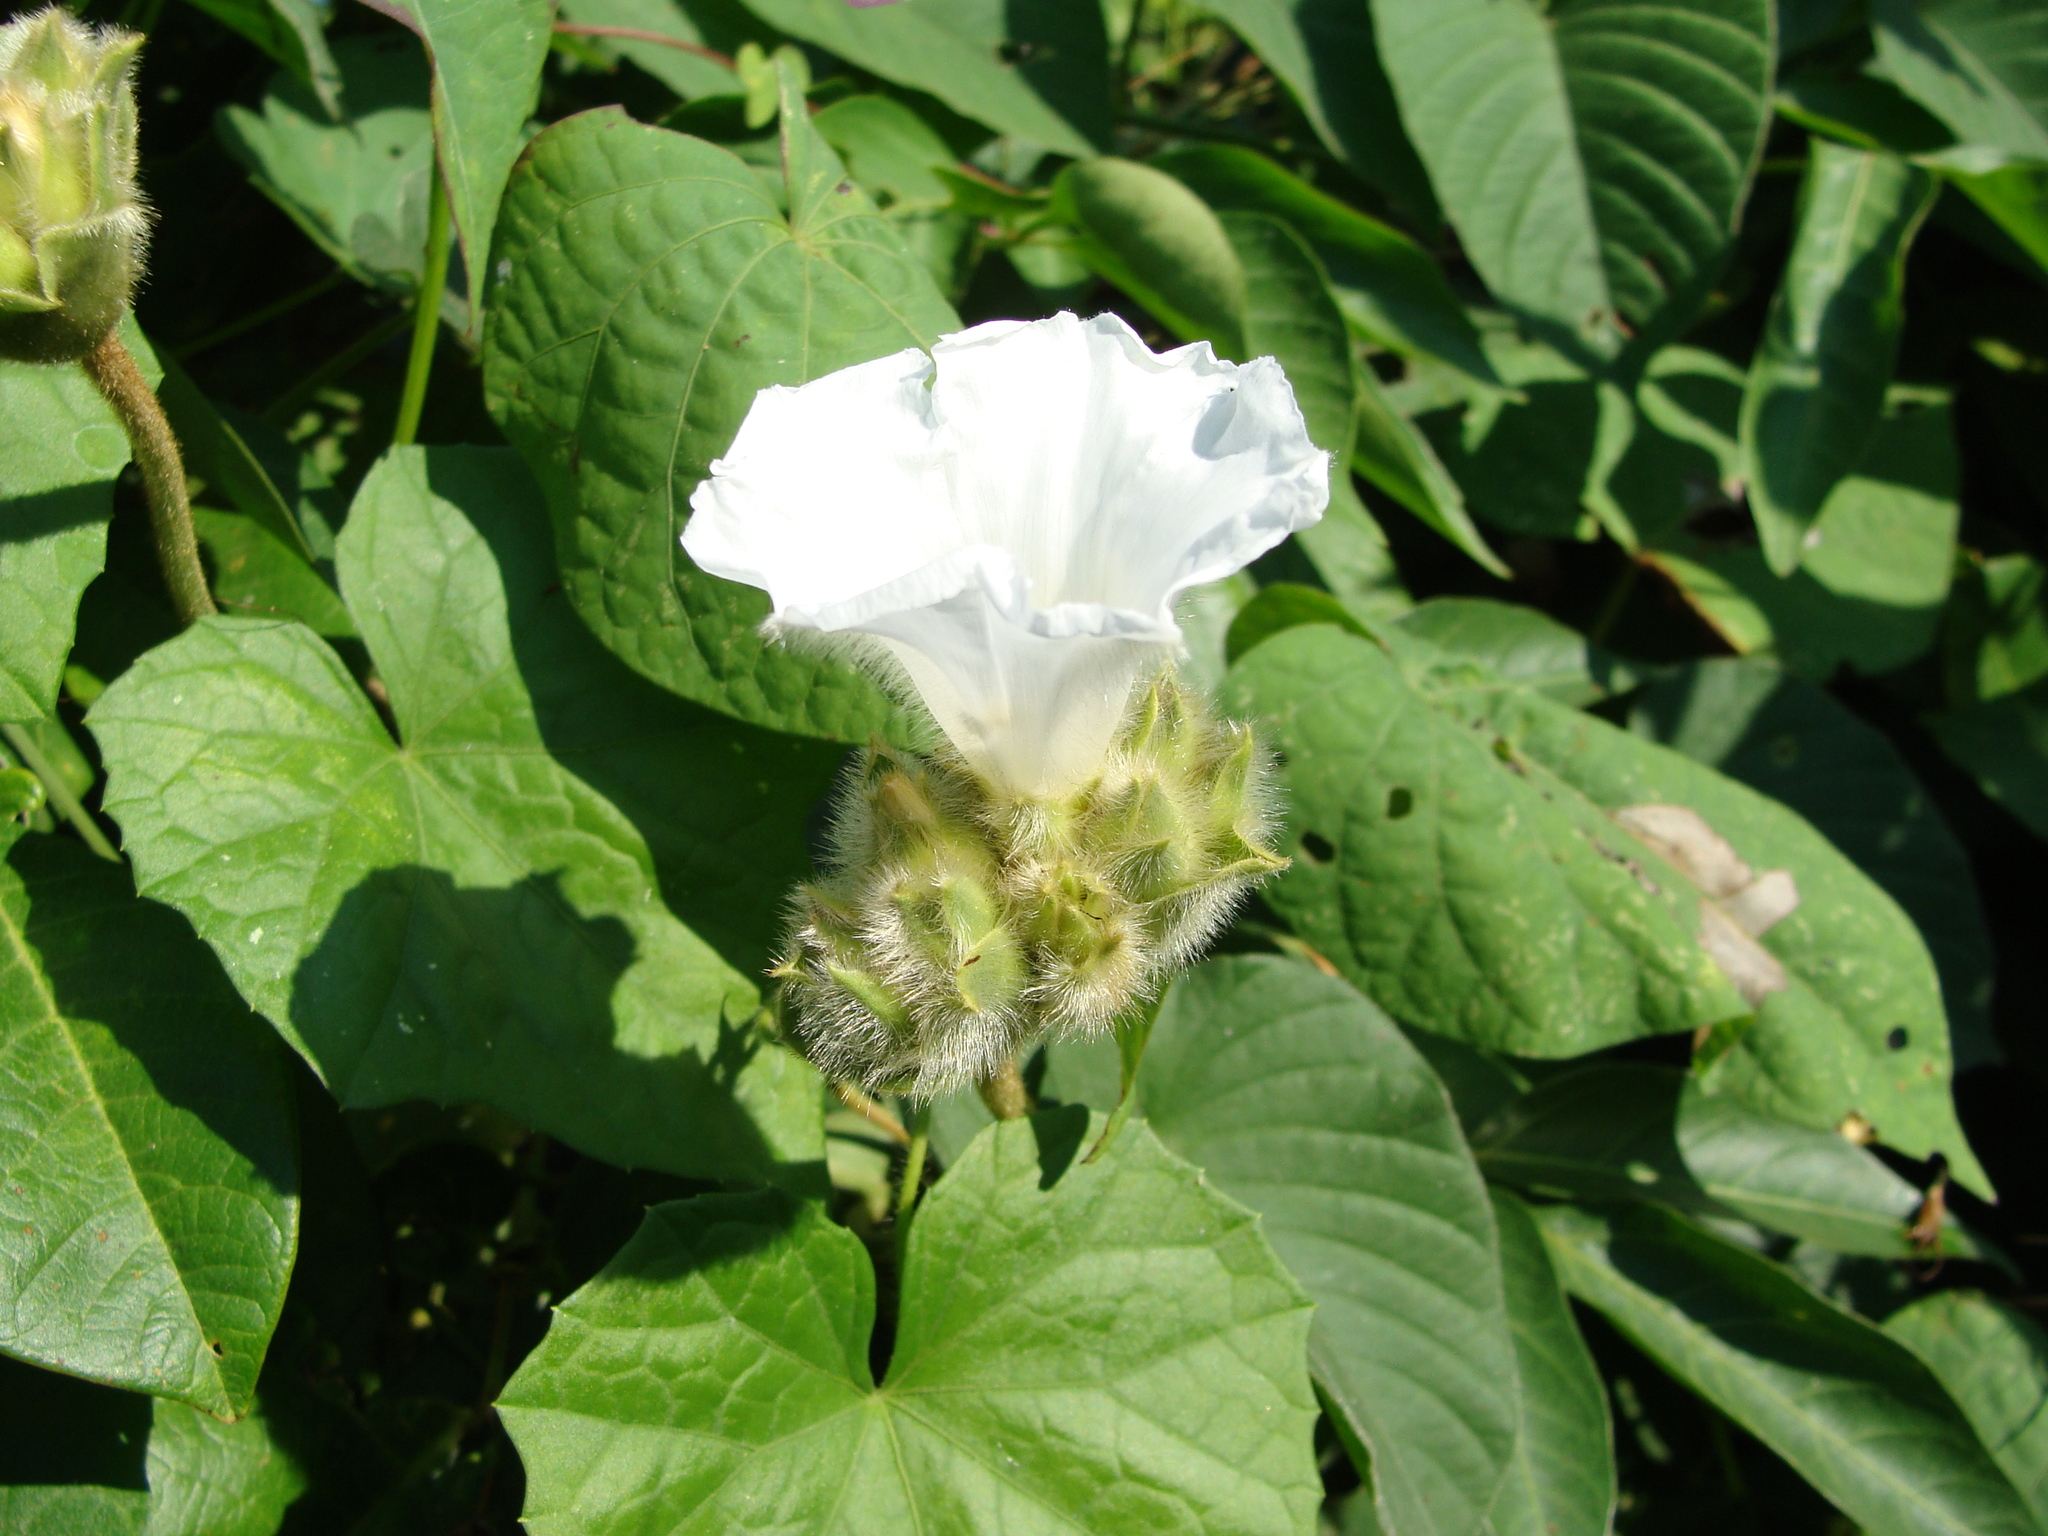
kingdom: Plantae
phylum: Tracheophyta
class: Magnoliopsida
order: Solanales
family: Convolvulaceae
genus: Odonellia
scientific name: Odonellia hirtiflora
